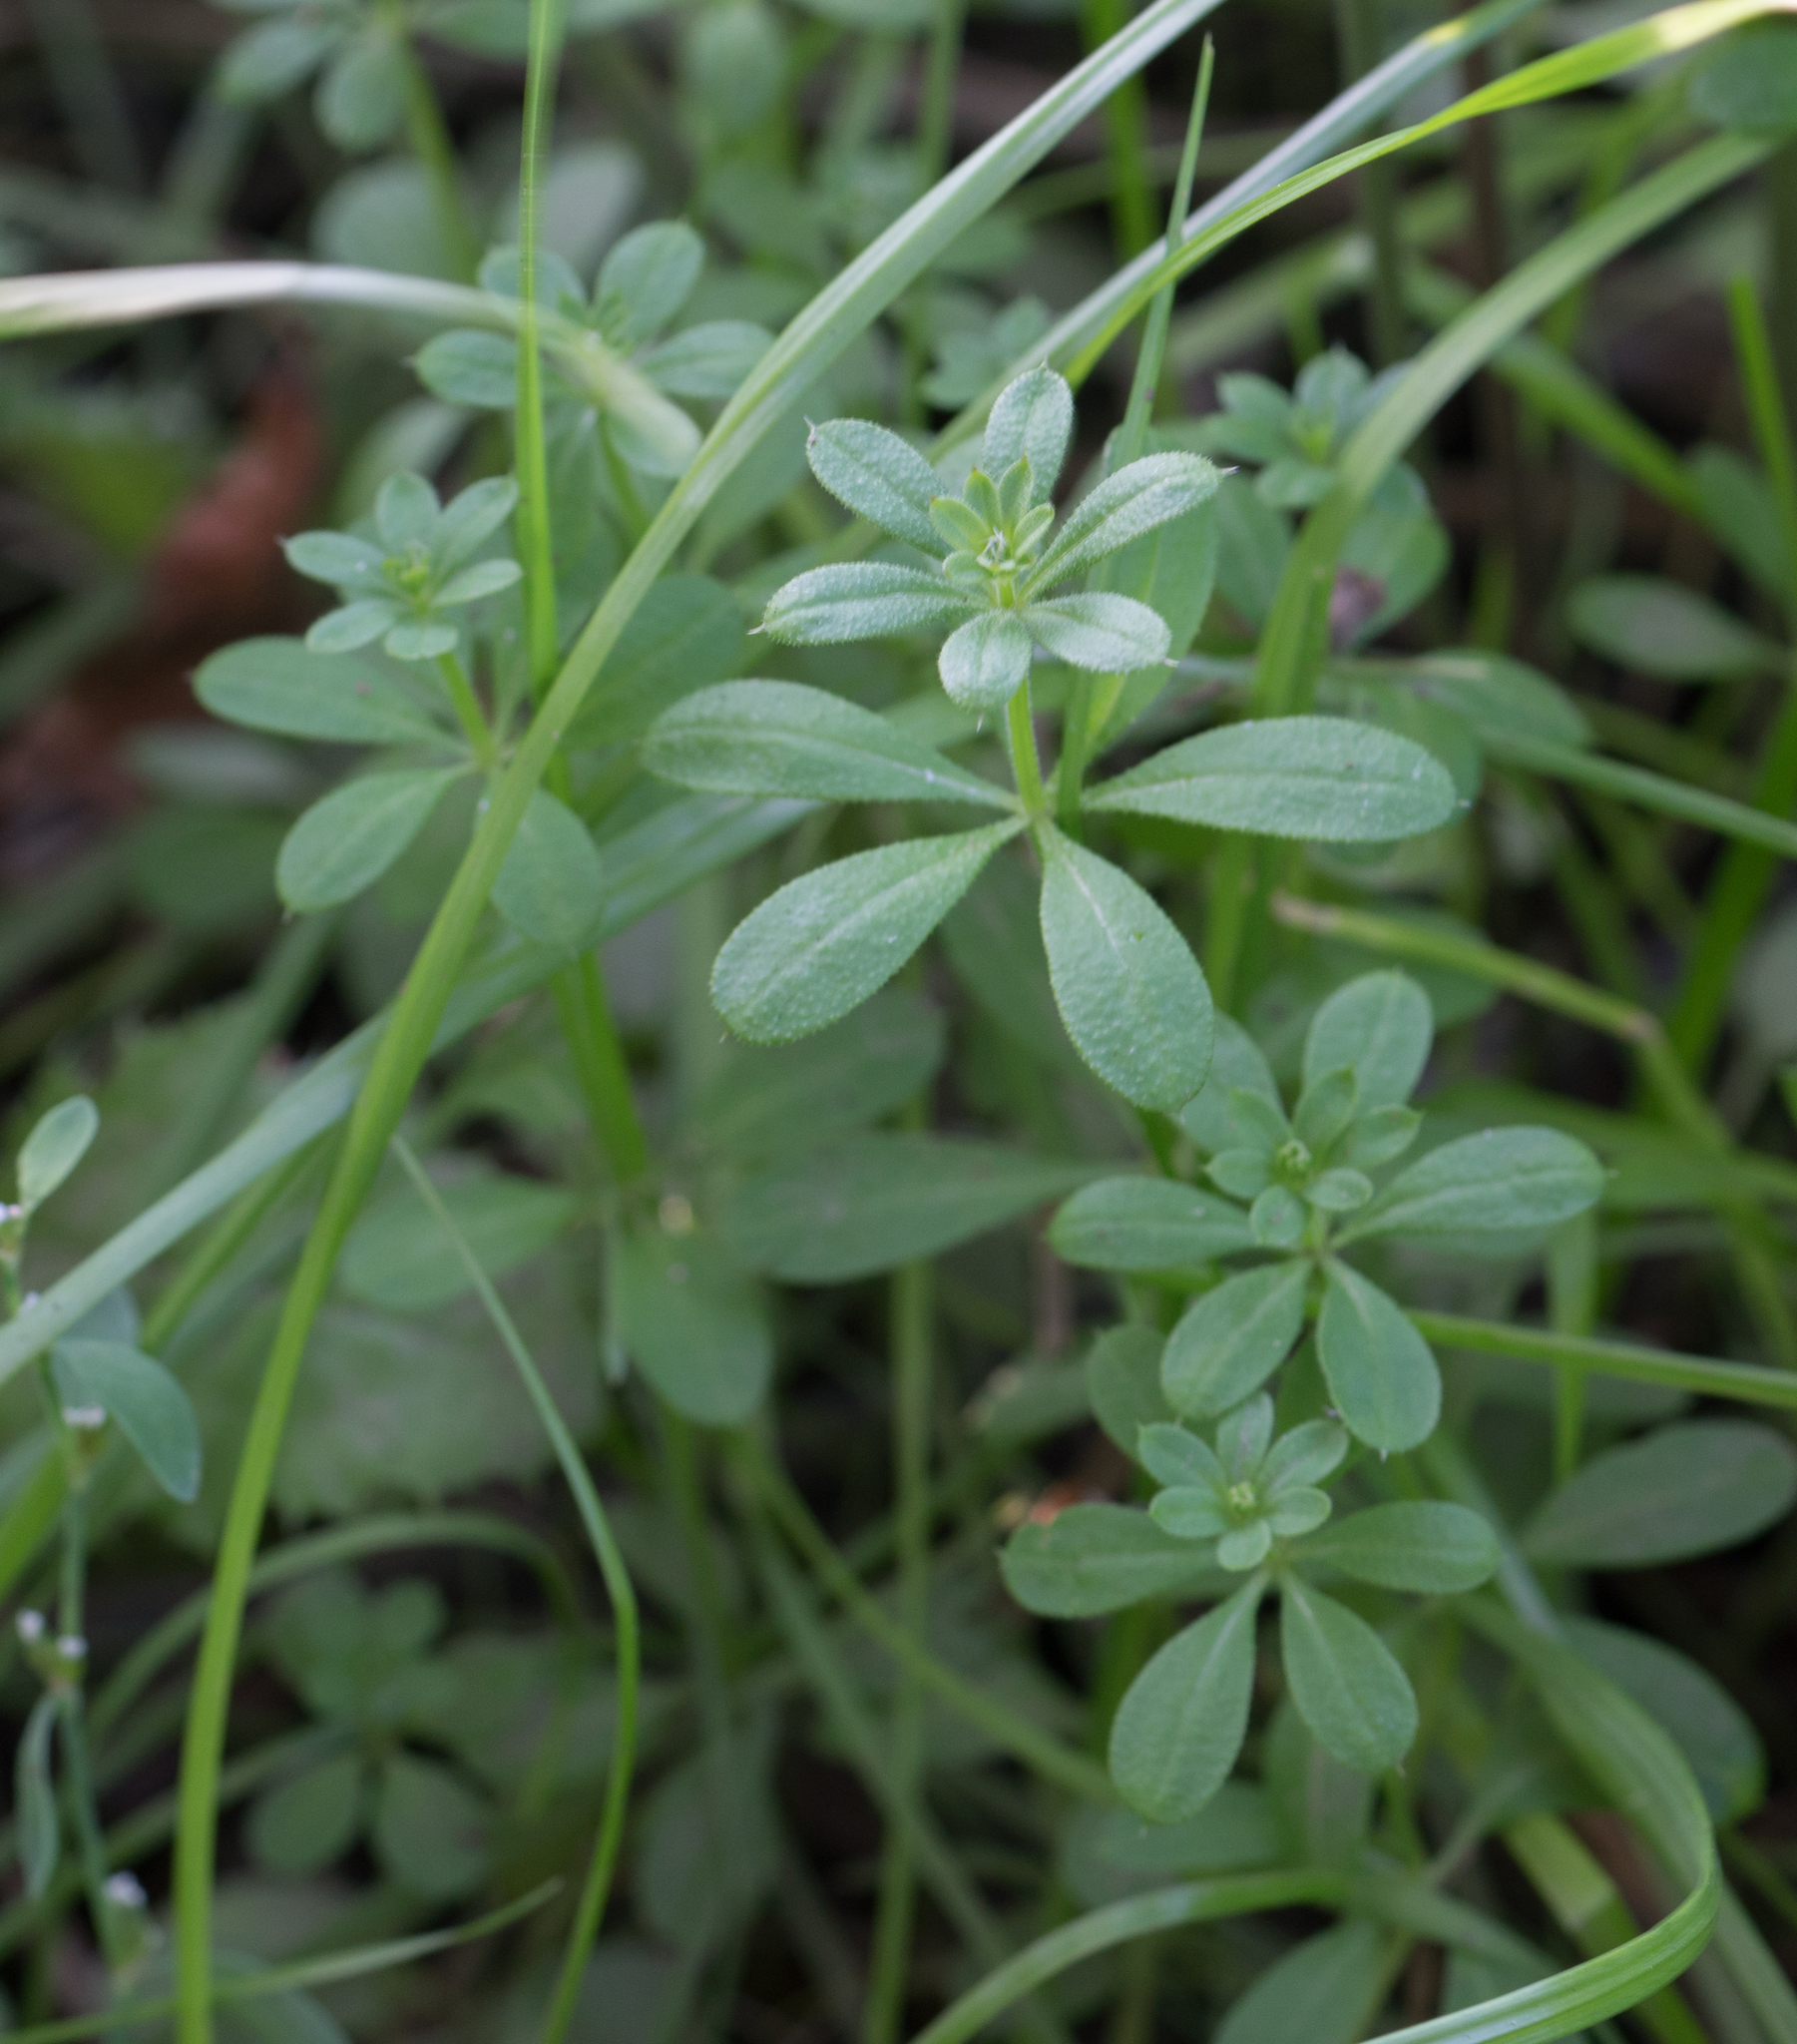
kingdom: Plantae
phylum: Tracheophyta
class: Magnoliopsida
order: Gentianales
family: Rubiaceae
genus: Galium
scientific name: Galium aparine
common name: Cleavers
